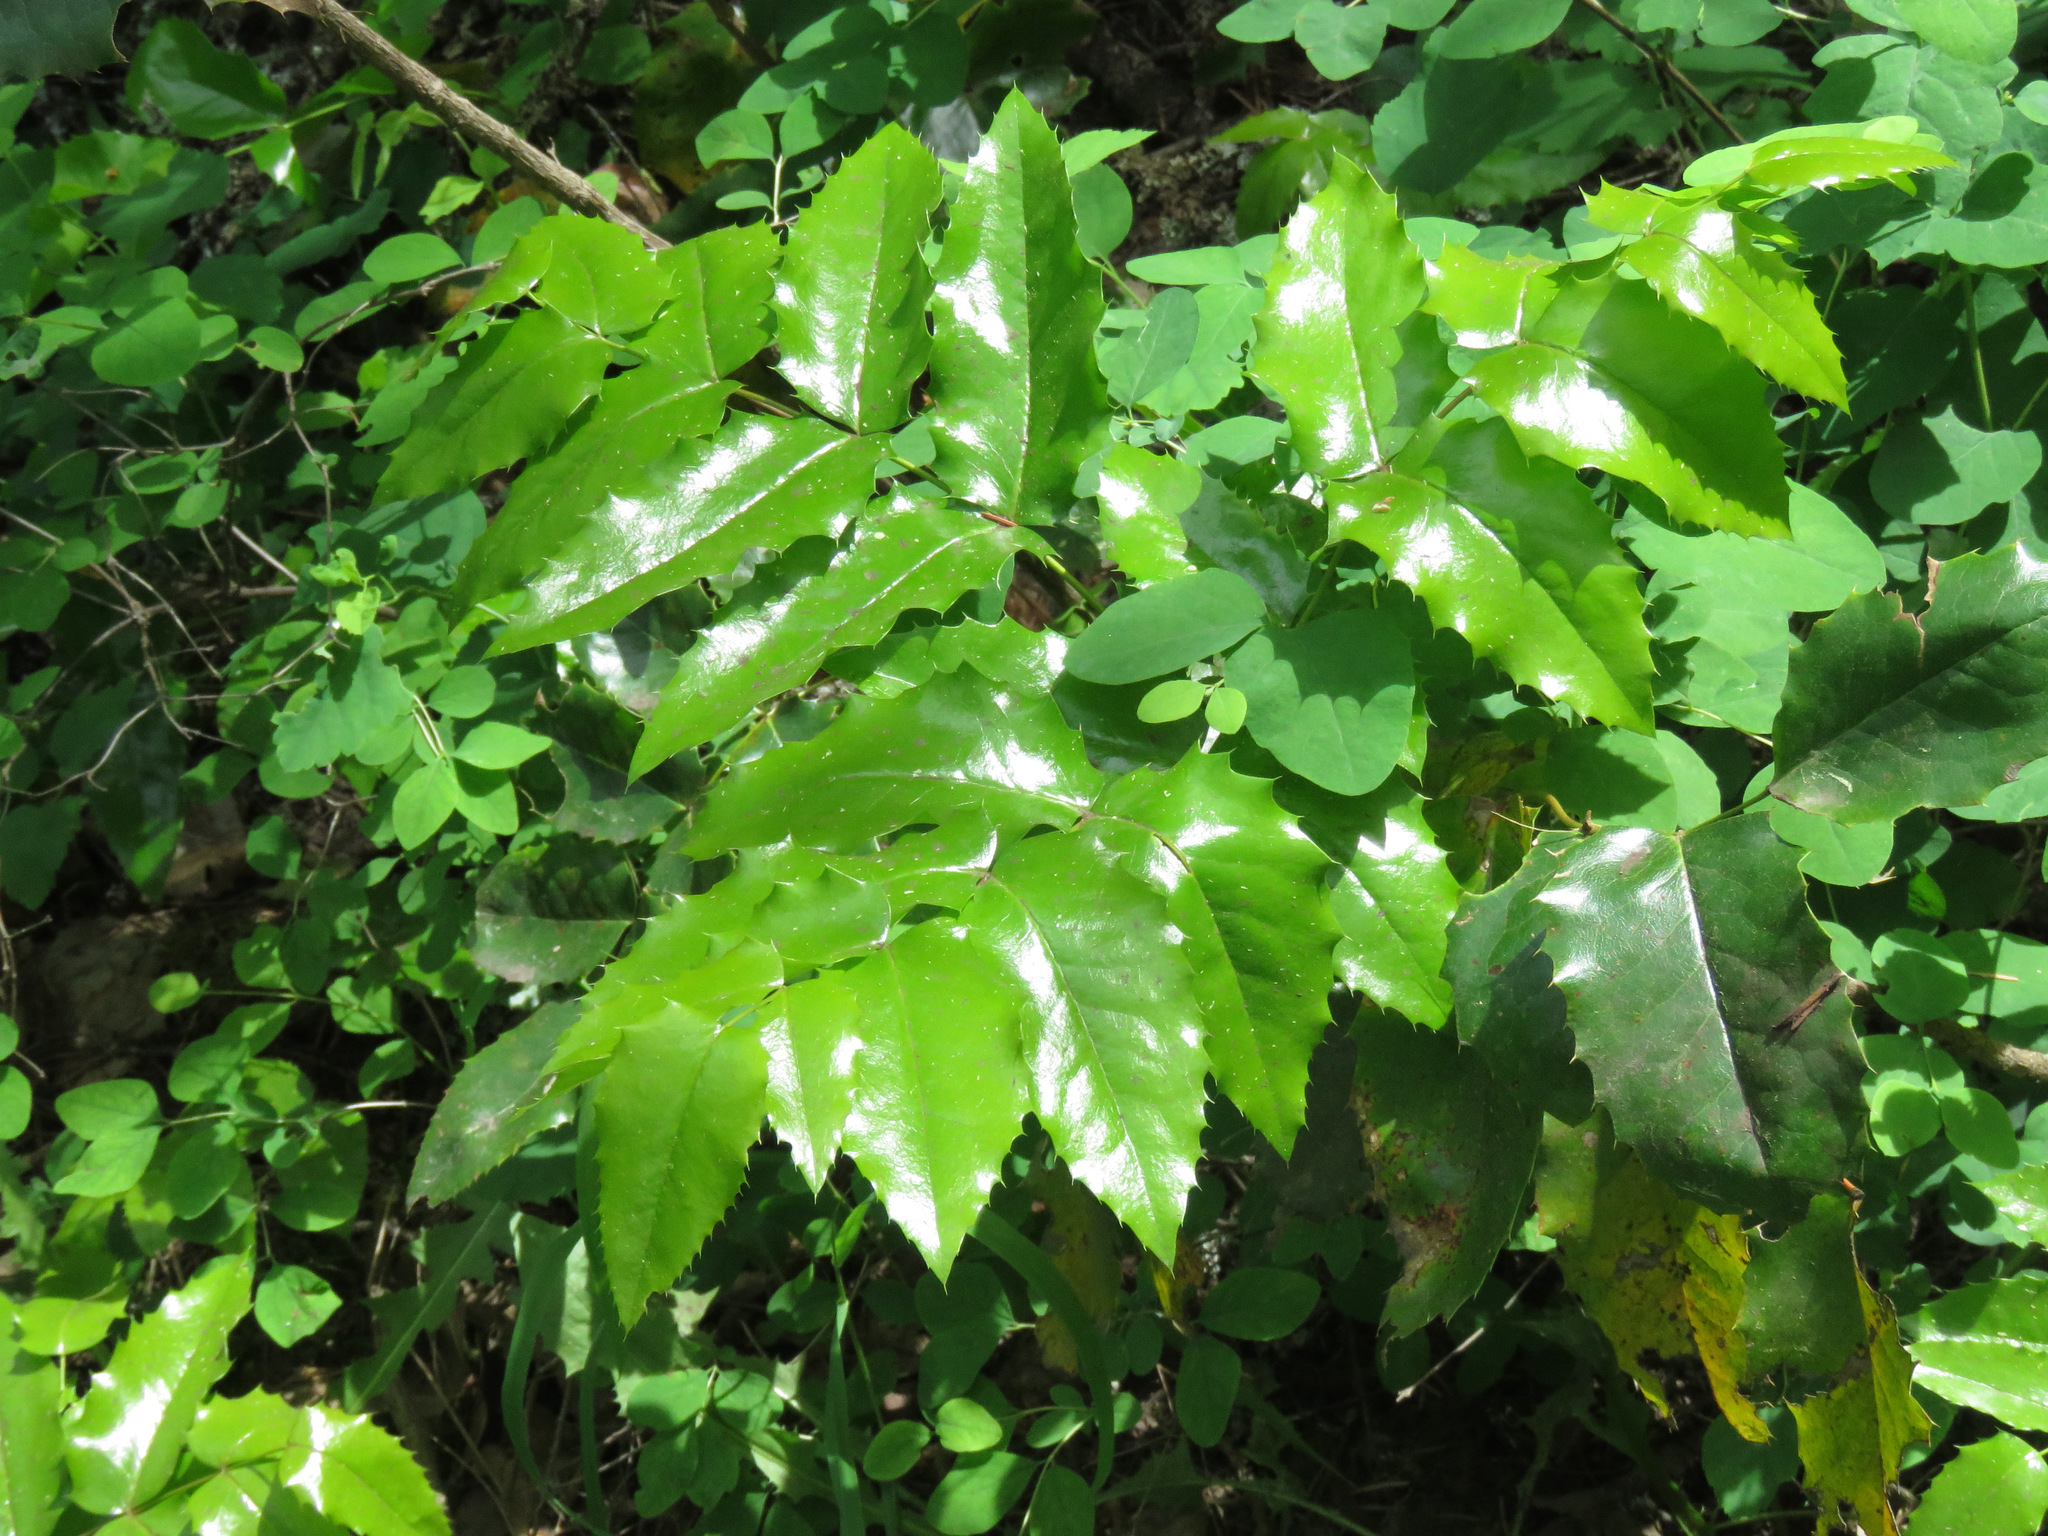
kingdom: Plantae
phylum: Tracheophyta
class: Magnoliopsida
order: Ranunculales
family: Berberidaceae
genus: Mahonia
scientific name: Mahonia aquifolium
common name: Oregon-grape
